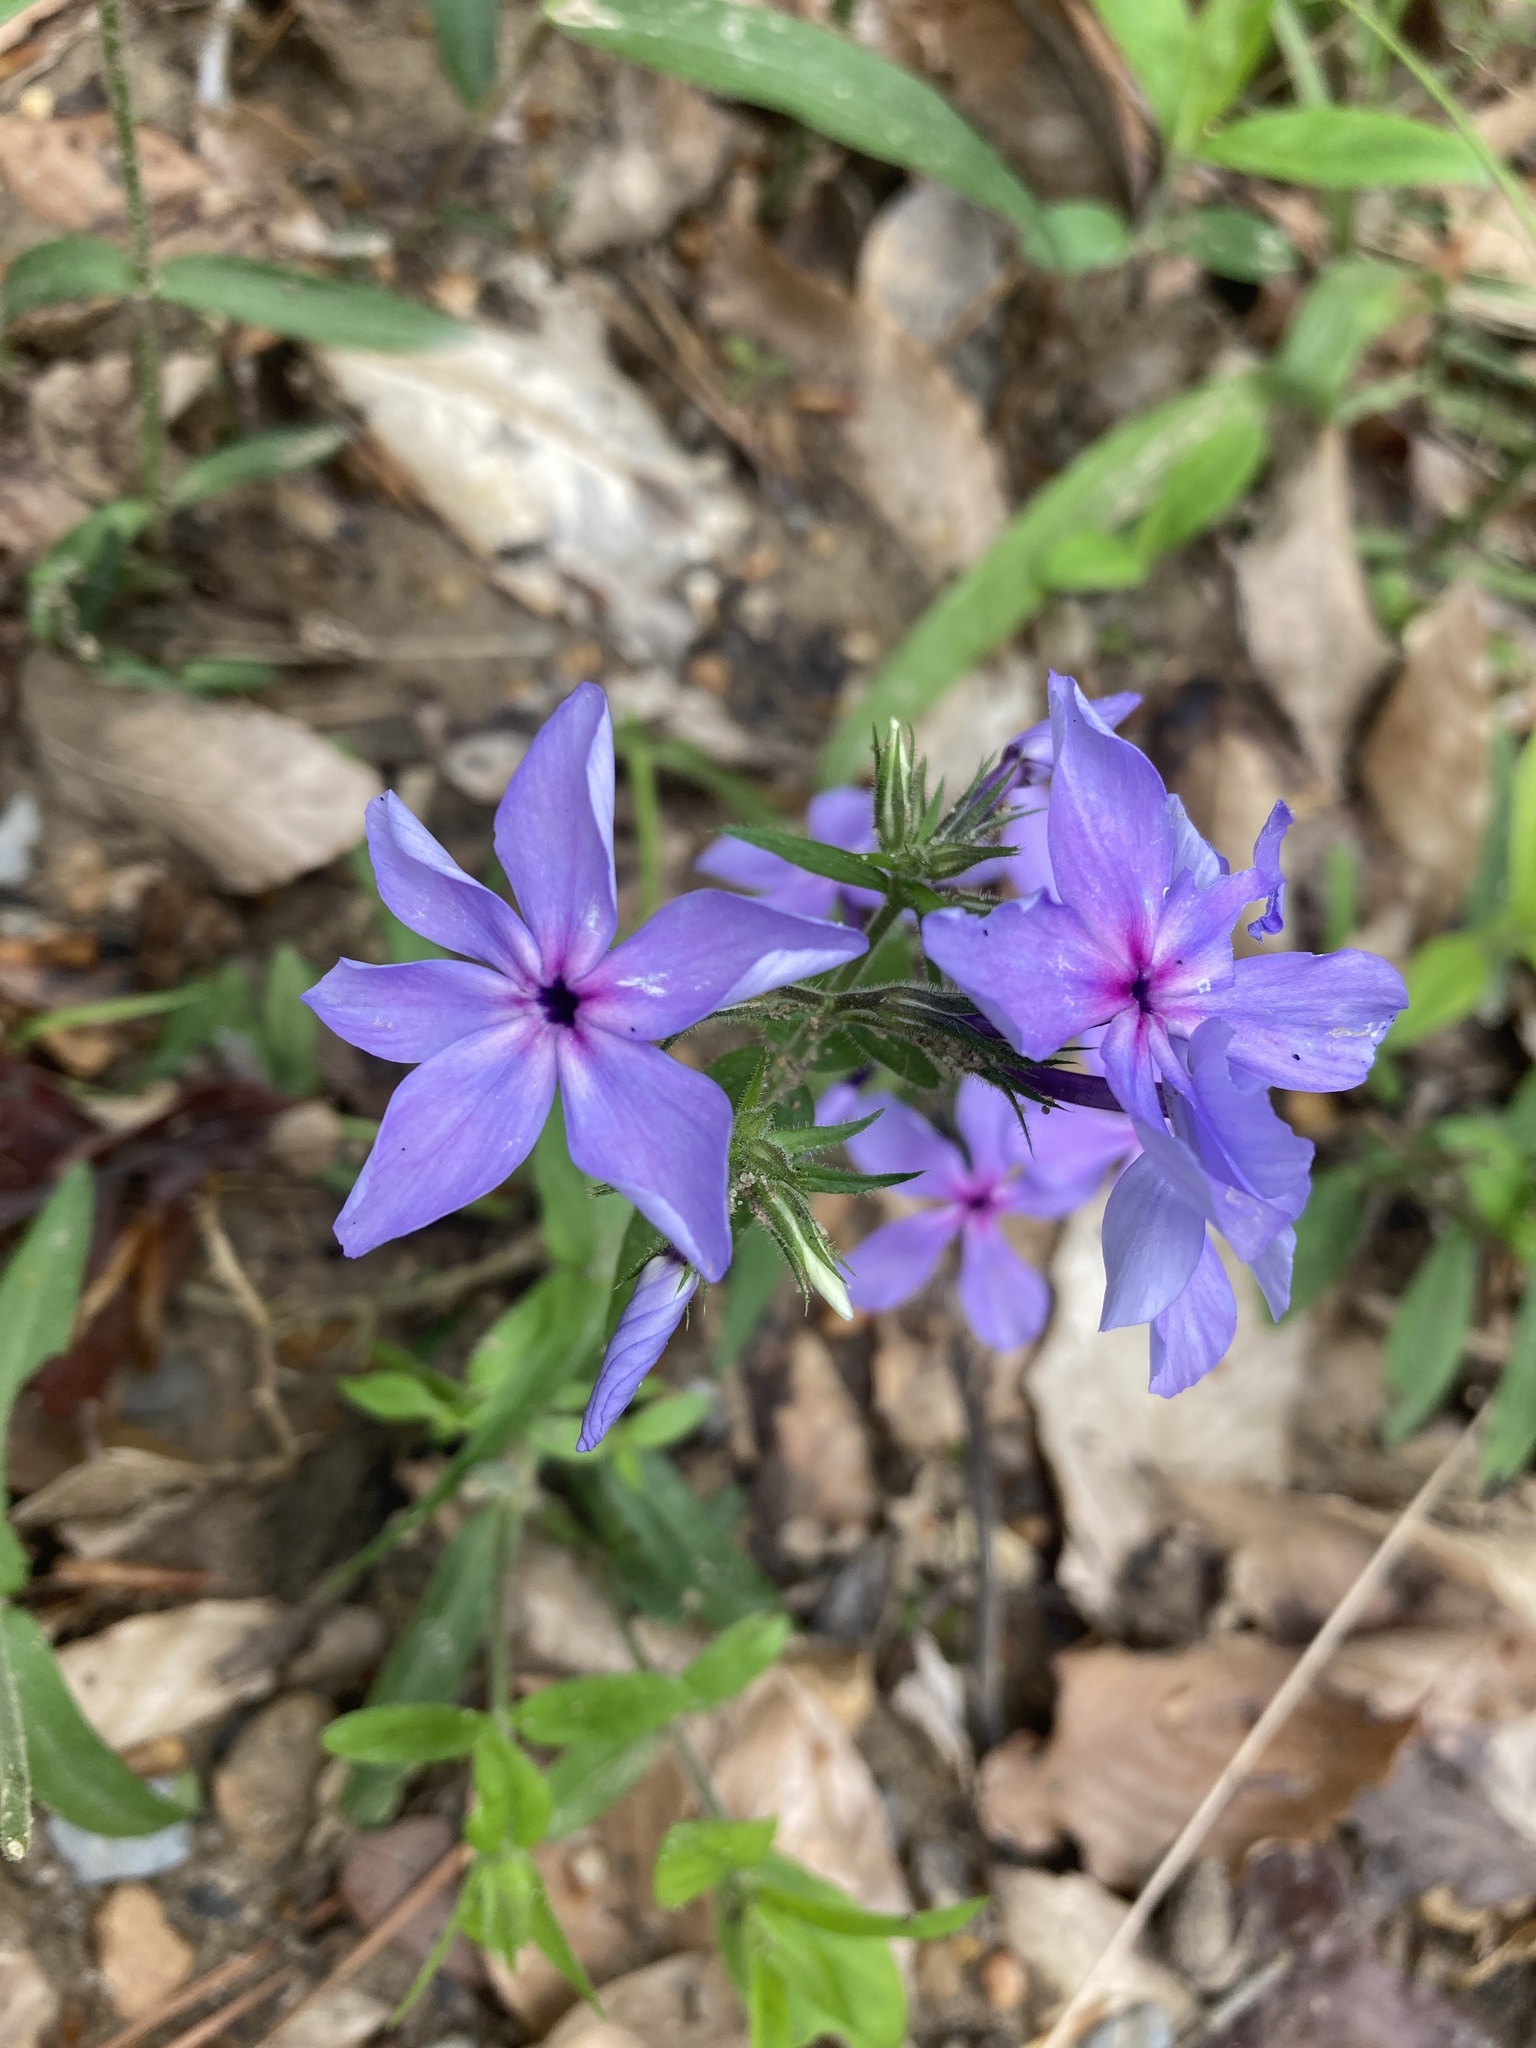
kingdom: Plantae
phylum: Tracheophyta
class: Magnoliopsida
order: Ericales
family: Polemoniaceae
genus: Phlox
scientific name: Phlox divaricata
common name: Blue phlox
